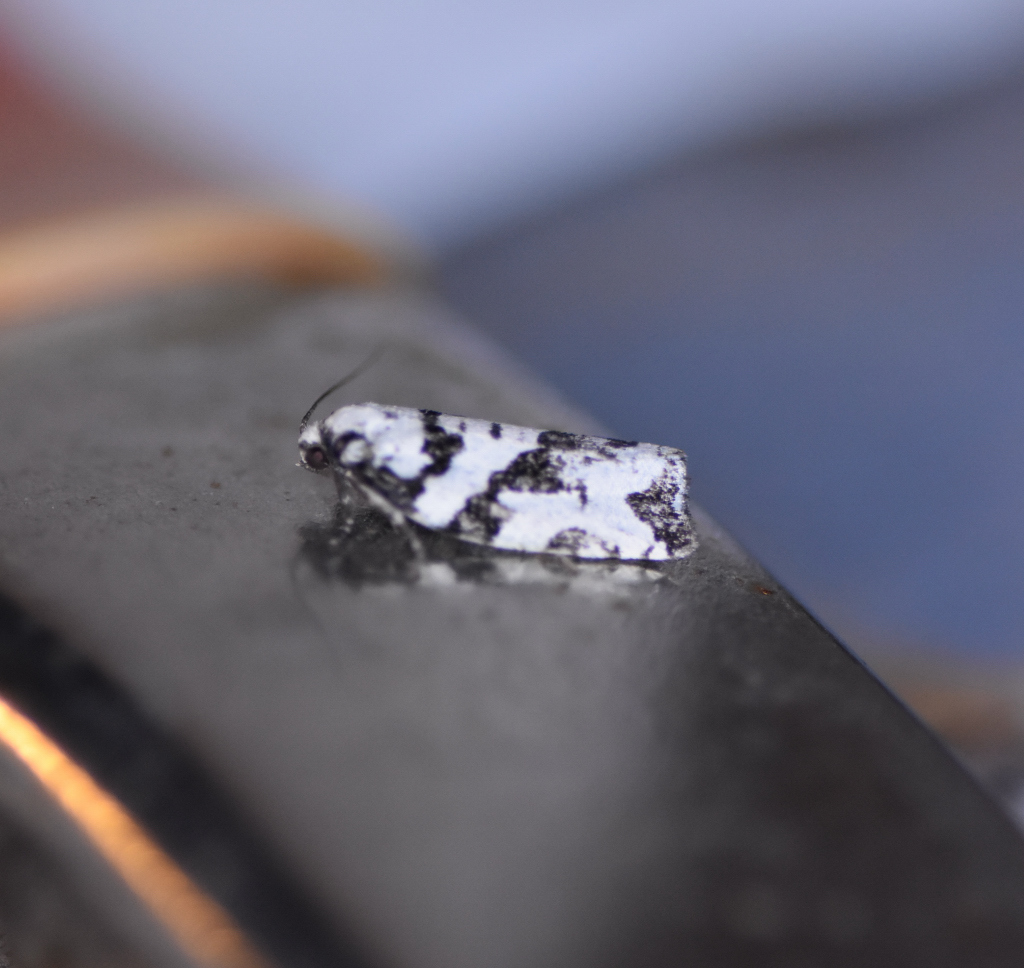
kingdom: Animalia
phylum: Arthropoda
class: Insecta
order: Lepidoptera
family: Tortricidae
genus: Archips
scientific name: Archips dissitana
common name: Boldly-marked archips moth
